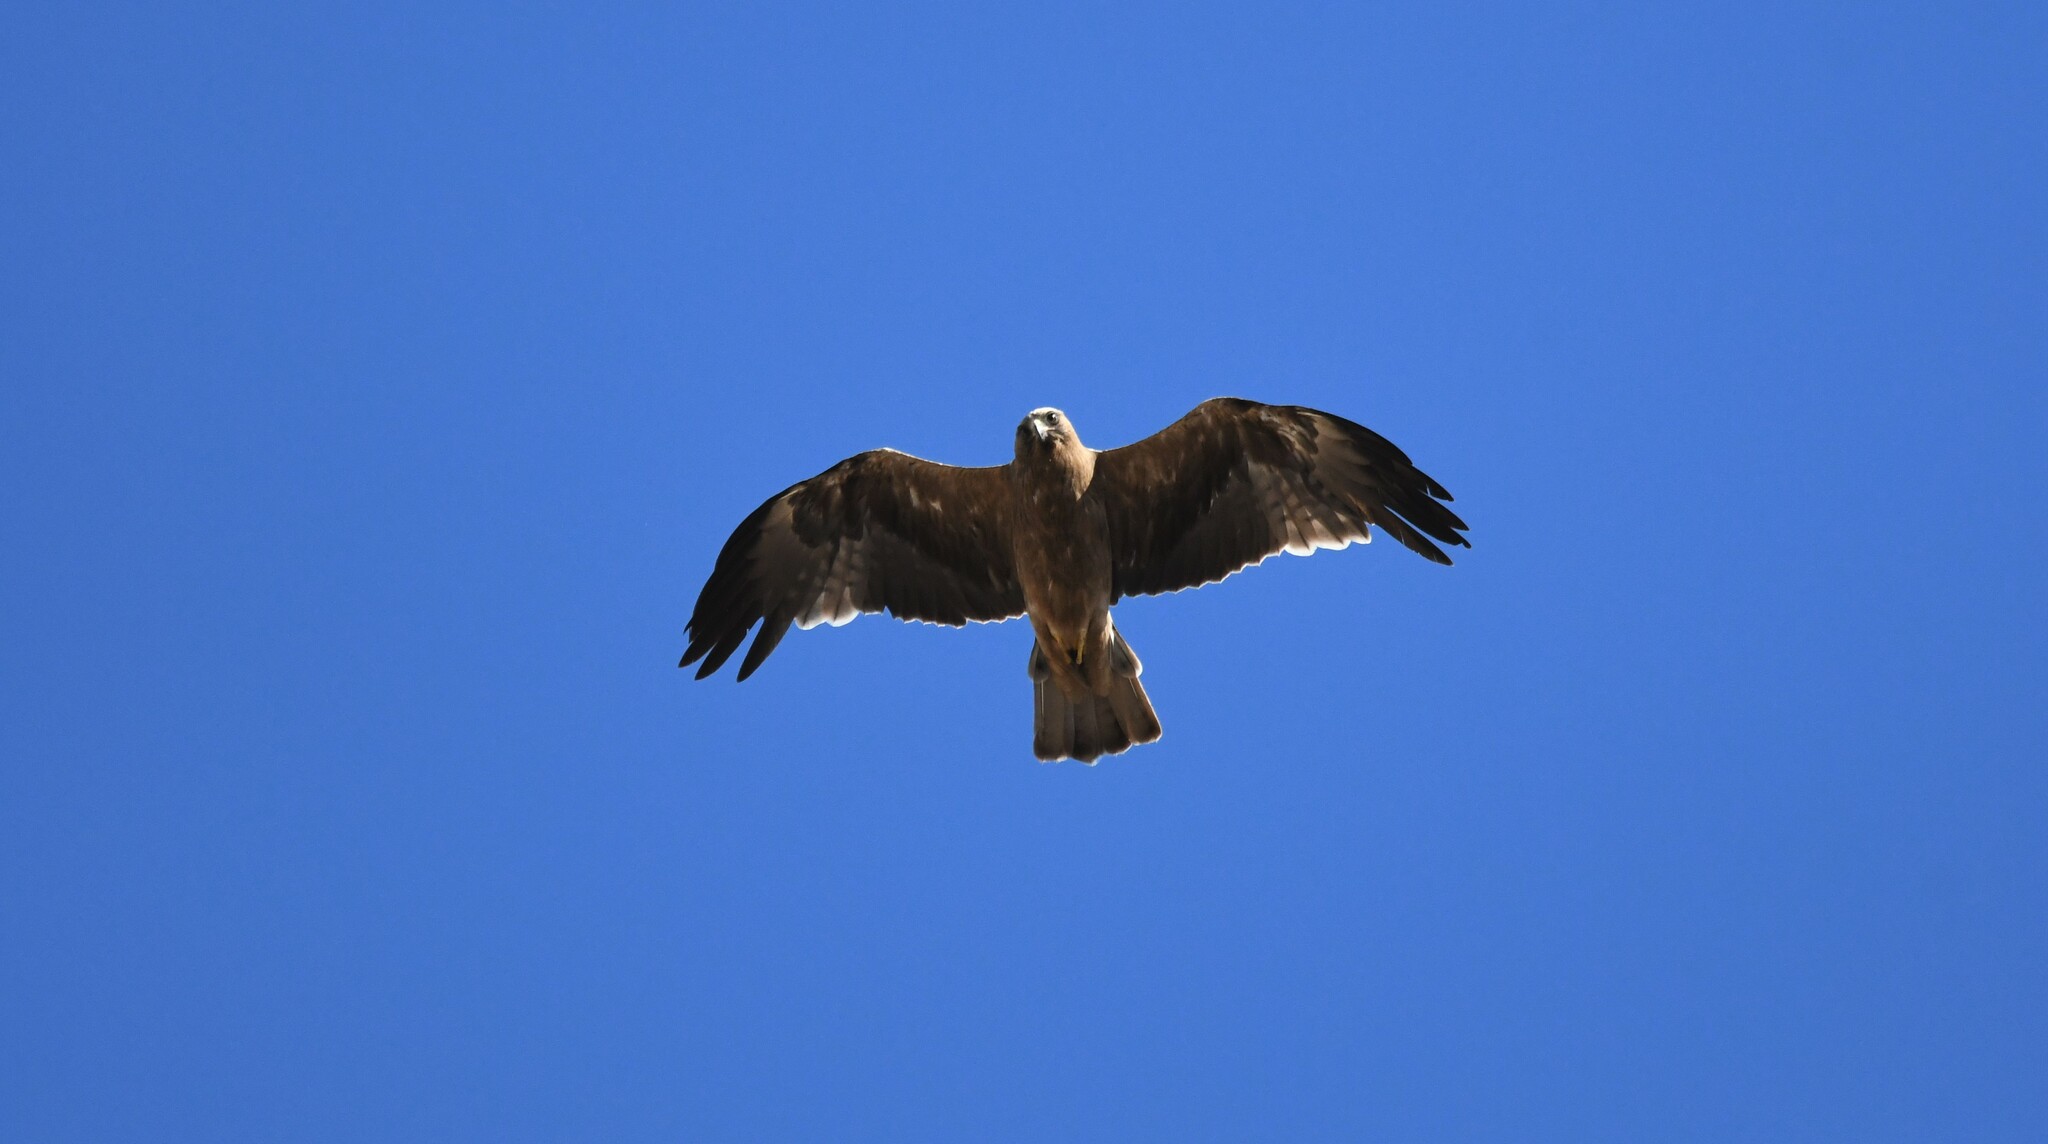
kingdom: Animalia
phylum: Chordata
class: Aves
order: Accipitriformes
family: Accipitridae
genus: Hieraaetus
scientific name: Hieraaetus pennatus
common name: Booted eagle
